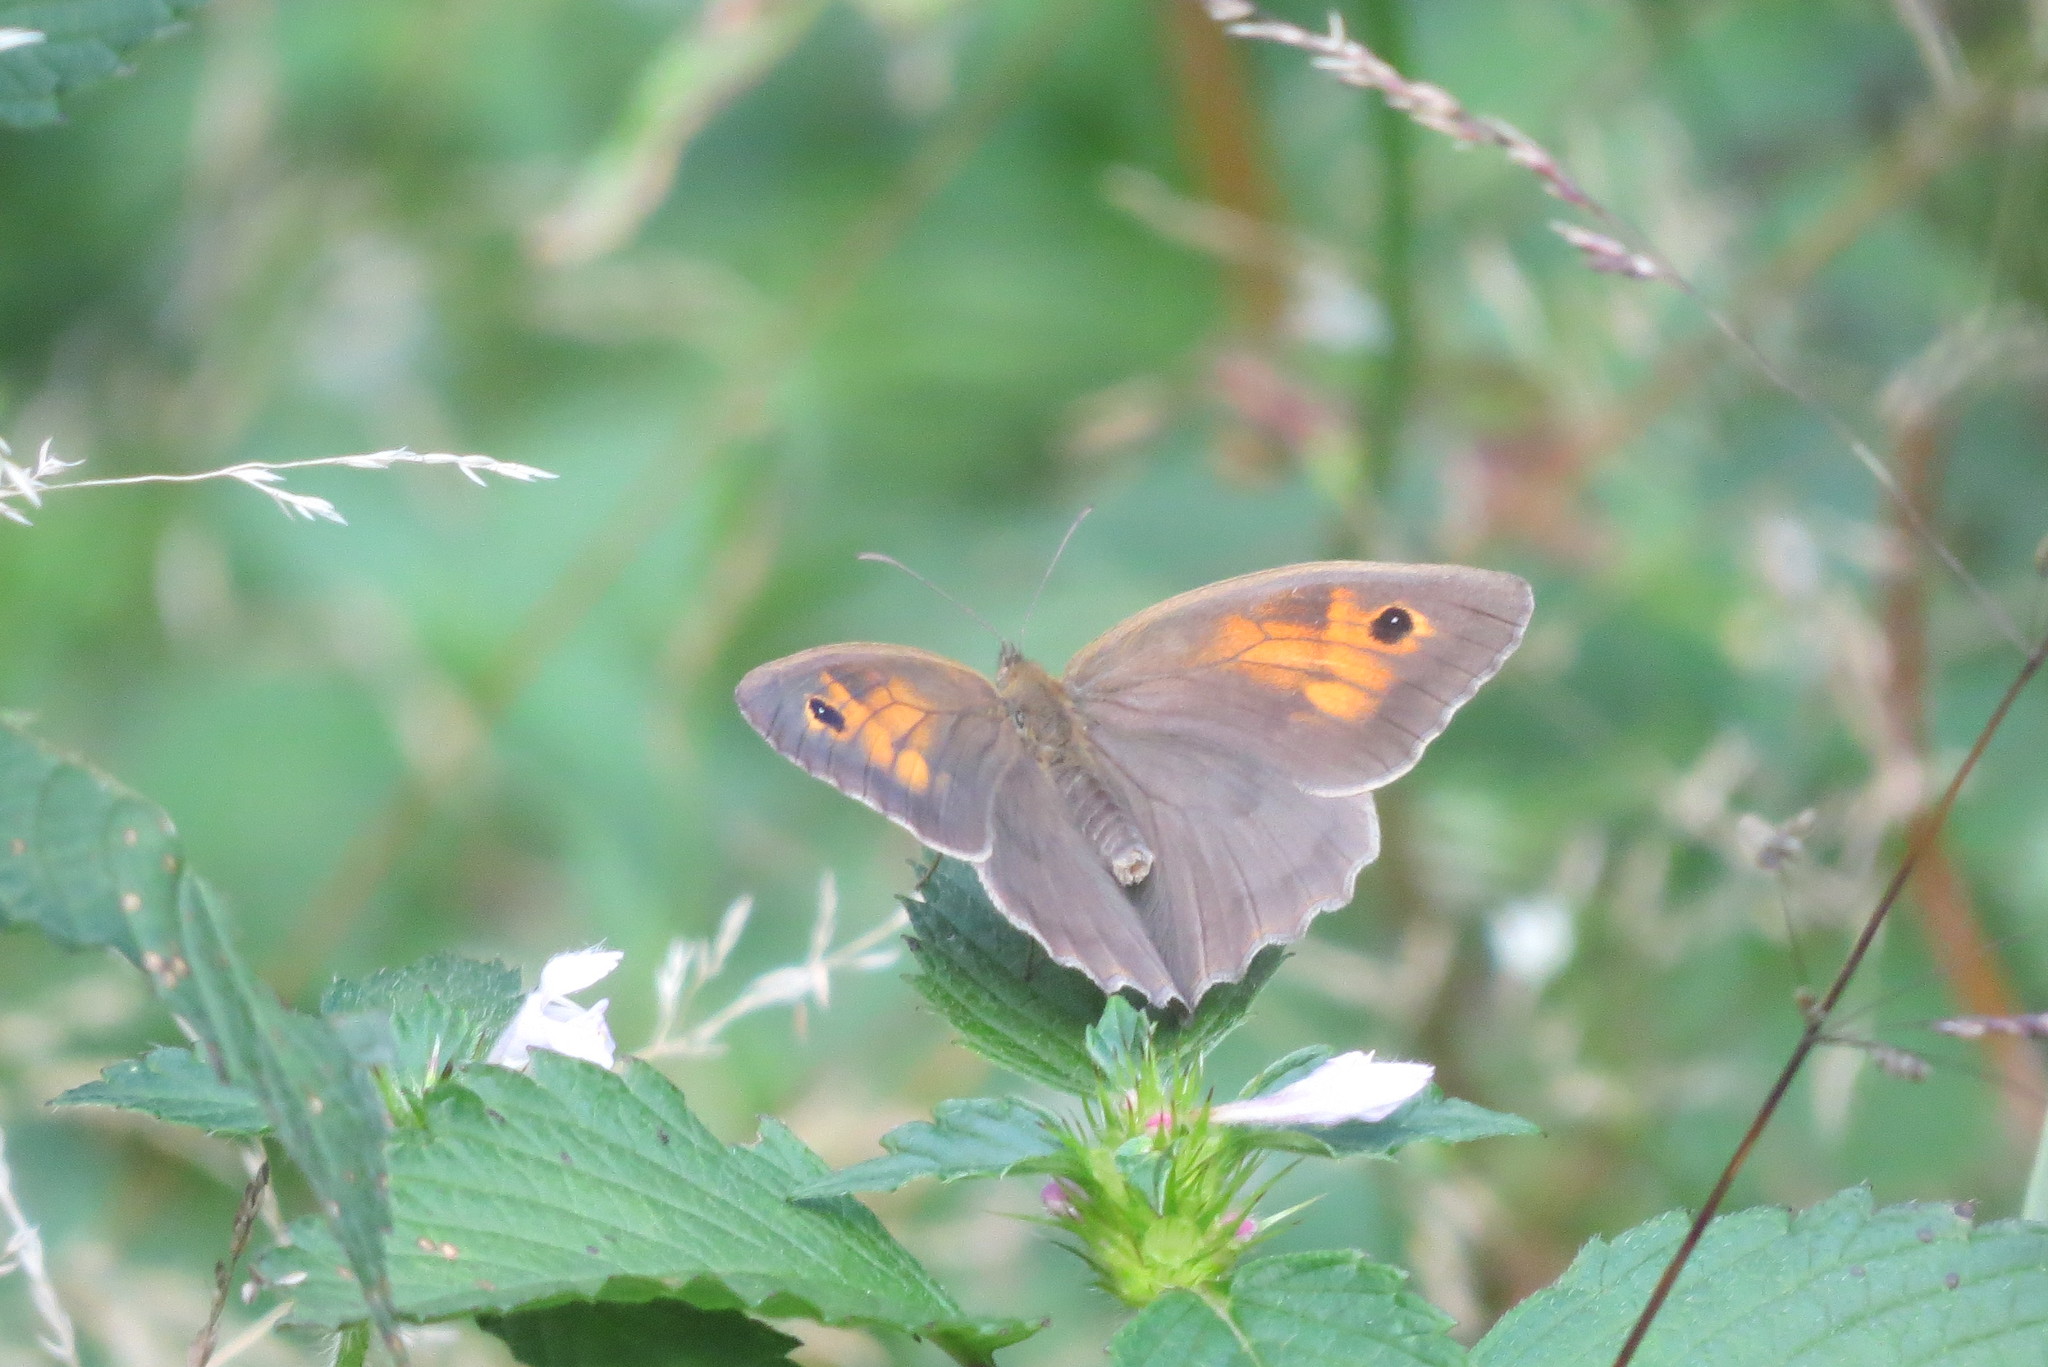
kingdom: Animalia
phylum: Arthropoda
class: Insecta
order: Lepidoptera
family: Nymphalidae
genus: Maniola
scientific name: Maniola jurtina
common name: Meadow brown
